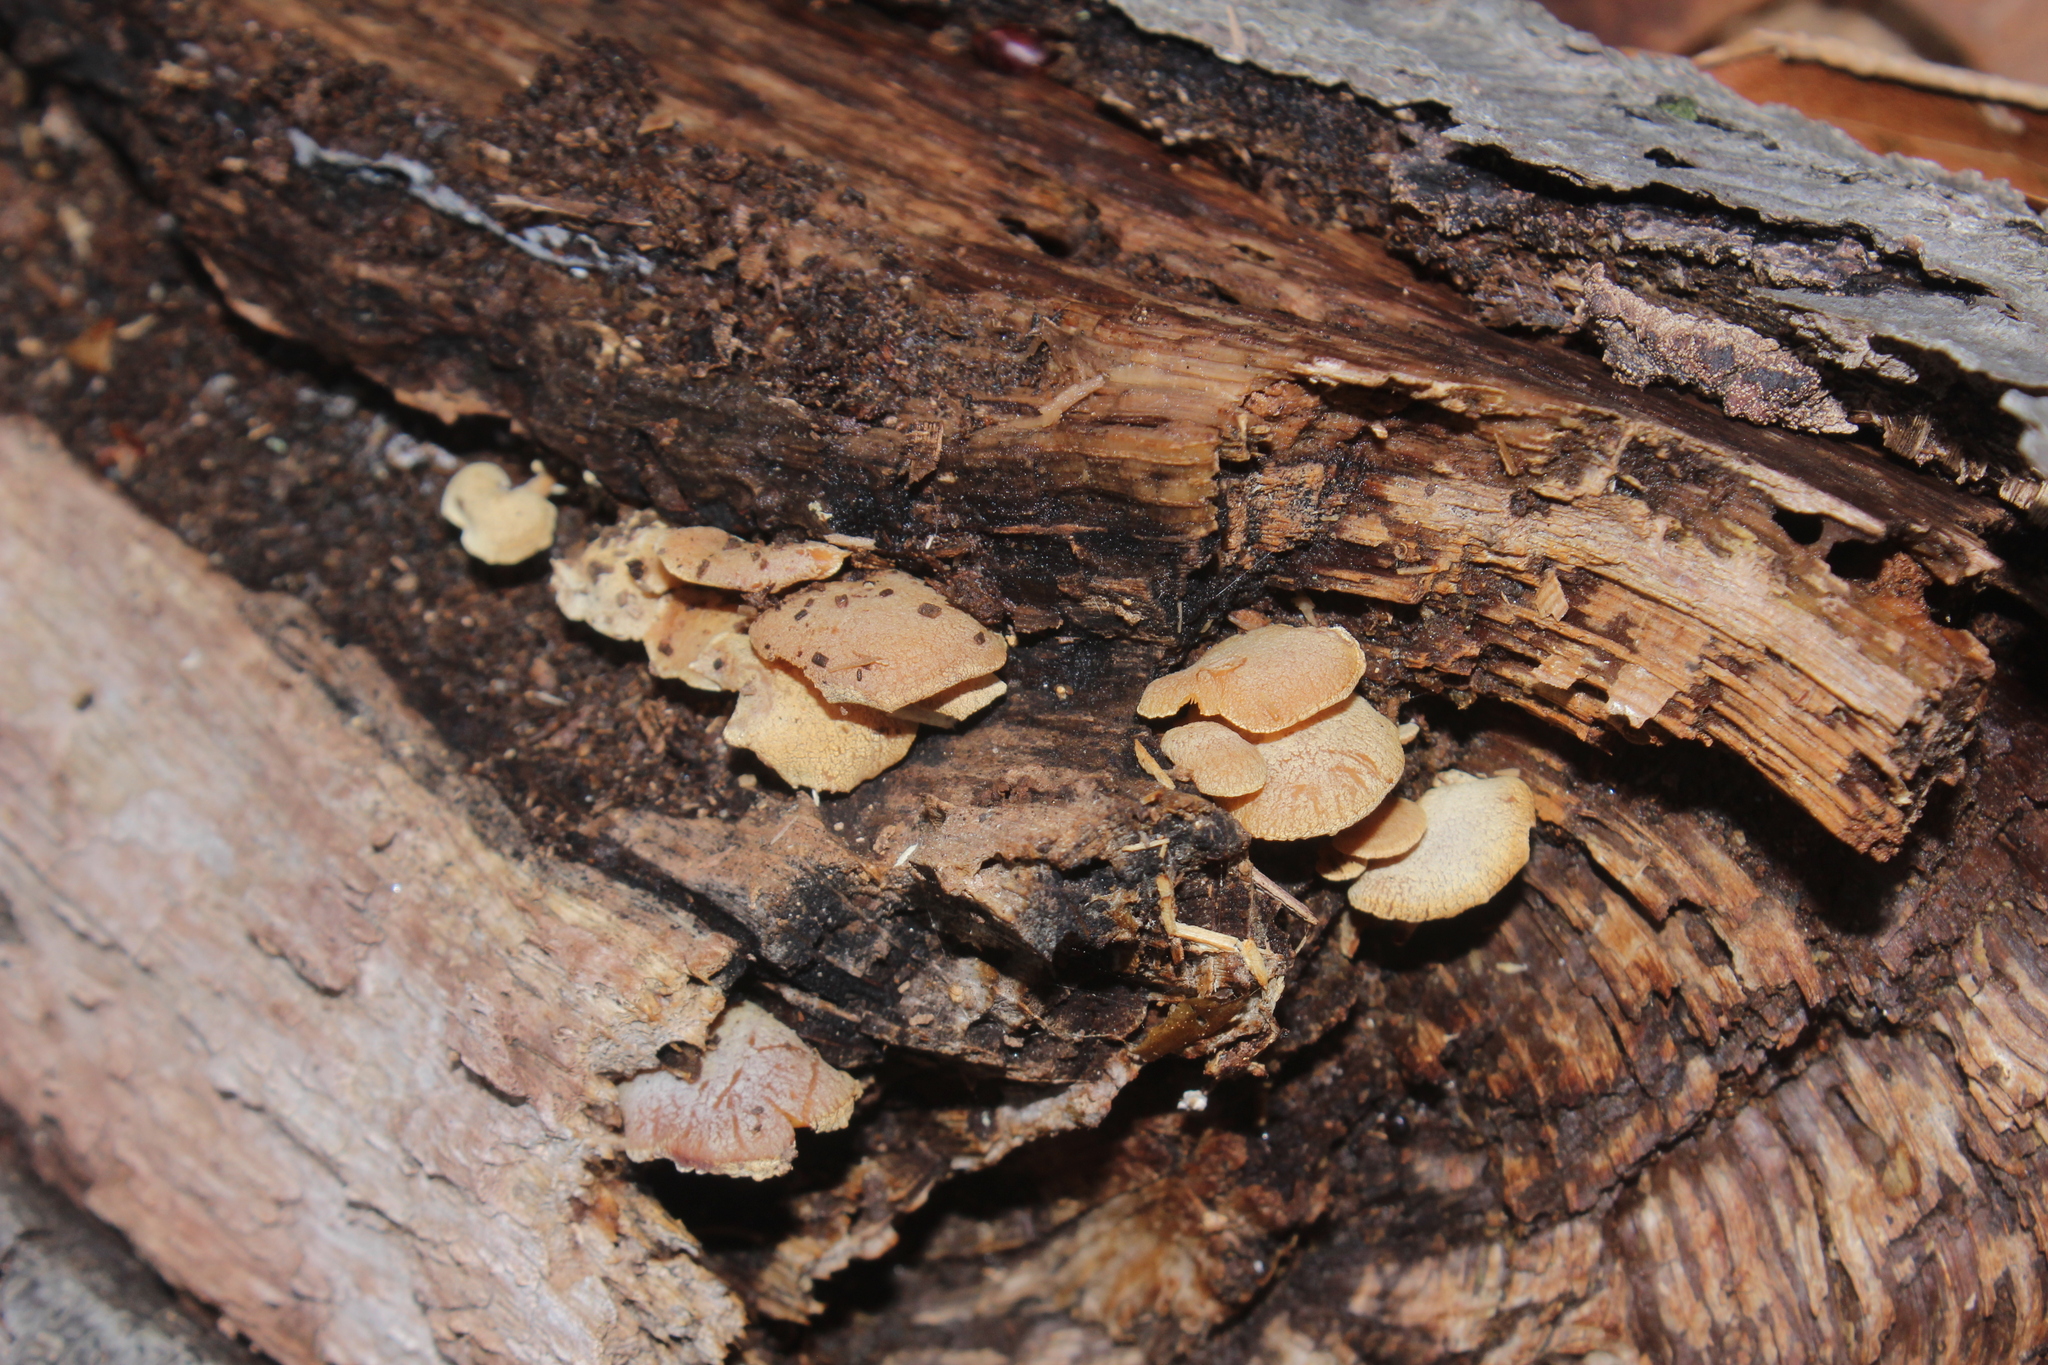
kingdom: Fungi
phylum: Basidiomycota
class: Agaricomycetes
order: Agaricales
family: Mycenaceae
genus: Panellus
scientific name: Panellus stipticus
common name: Bitter oysterling
